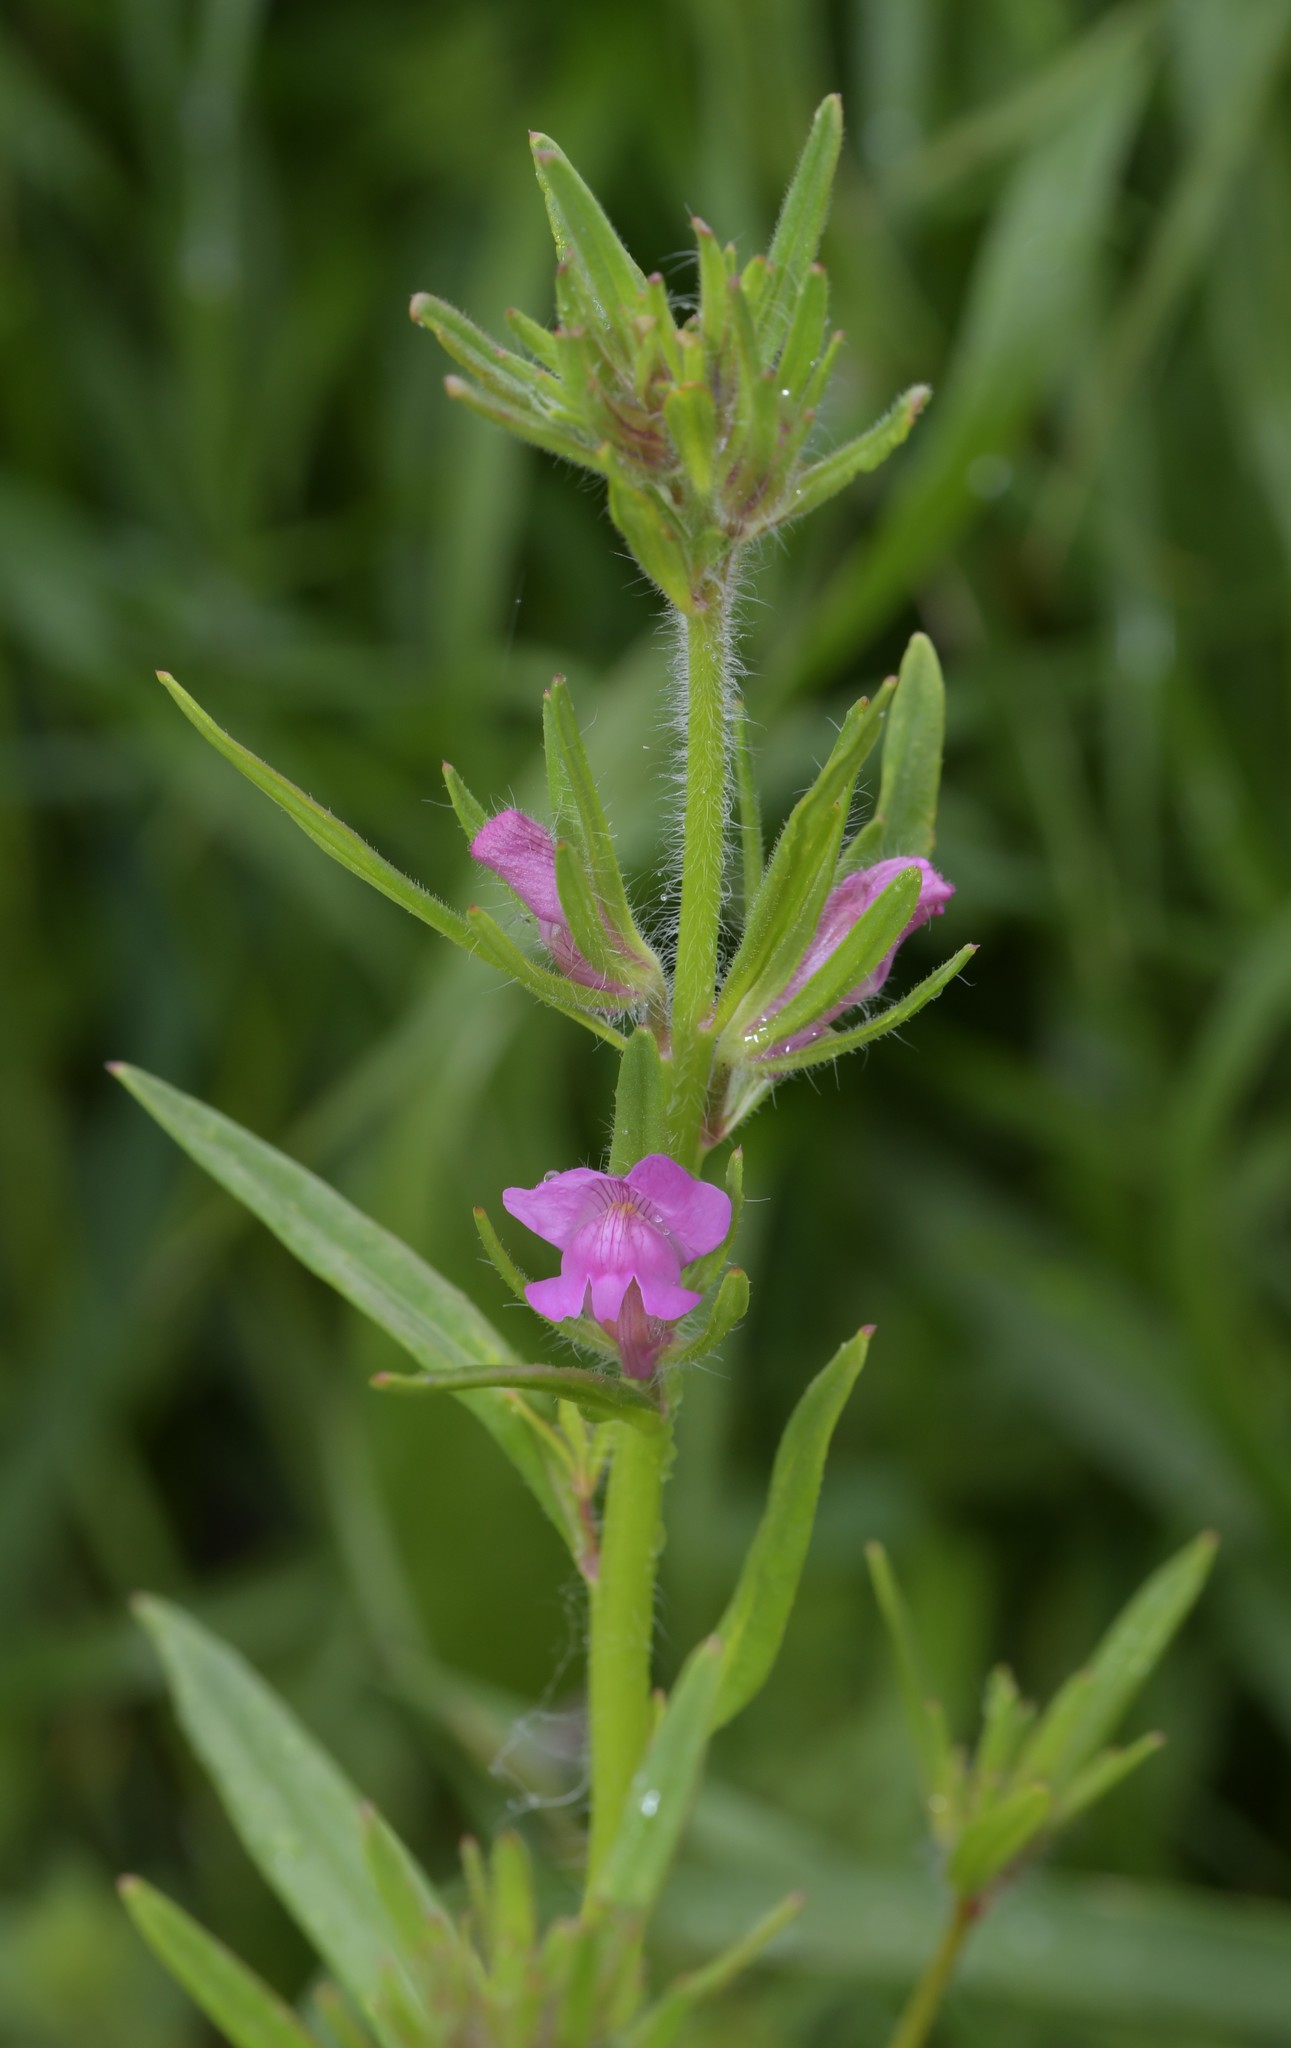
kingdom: Plantae
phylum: Tracheophyta
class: Magnoliopsida
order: Lamiales
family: Plantaginaceae
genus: Misopates
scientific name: Misopates orontium
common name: Weasel's-snout
